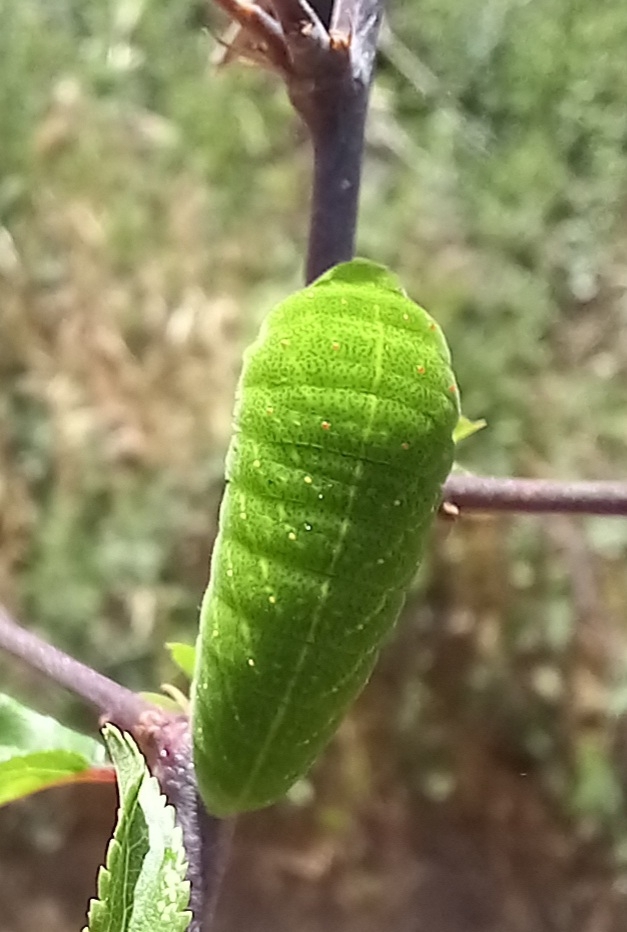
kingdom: Animalia
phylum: Arthropoda
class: Insecta
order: Lepidoptera
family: Papilionidae
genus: Iphiclides
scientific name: Iphiclides feisthamelii
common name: Iberian scarce swallowtail
